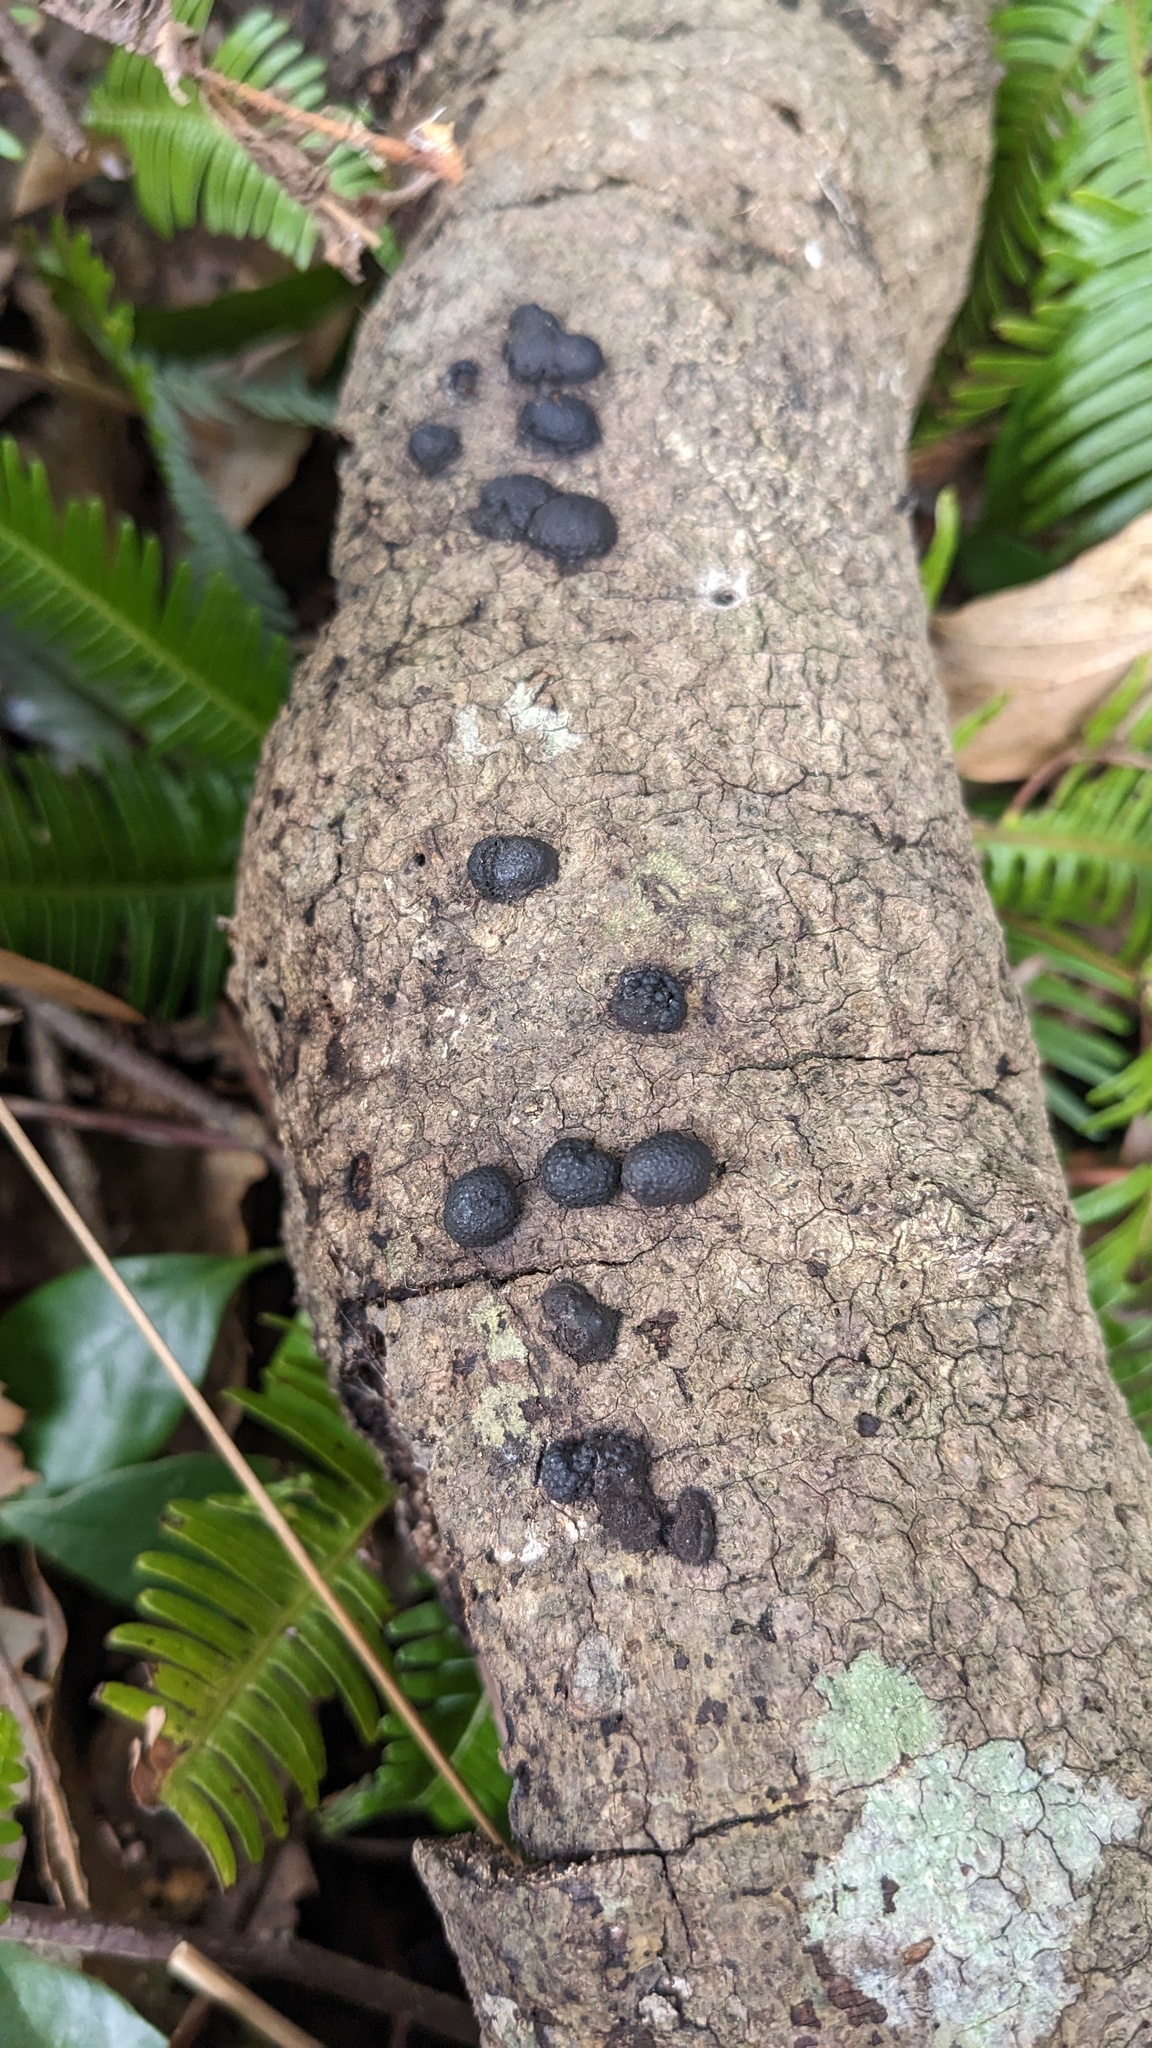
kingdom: Fungi
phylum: Ascomycota
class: Sordariomycetes
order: Xylariales
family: Hypoxylaceae
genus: Annulohypoxylon
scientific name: Annulohypoxylon truncatum
